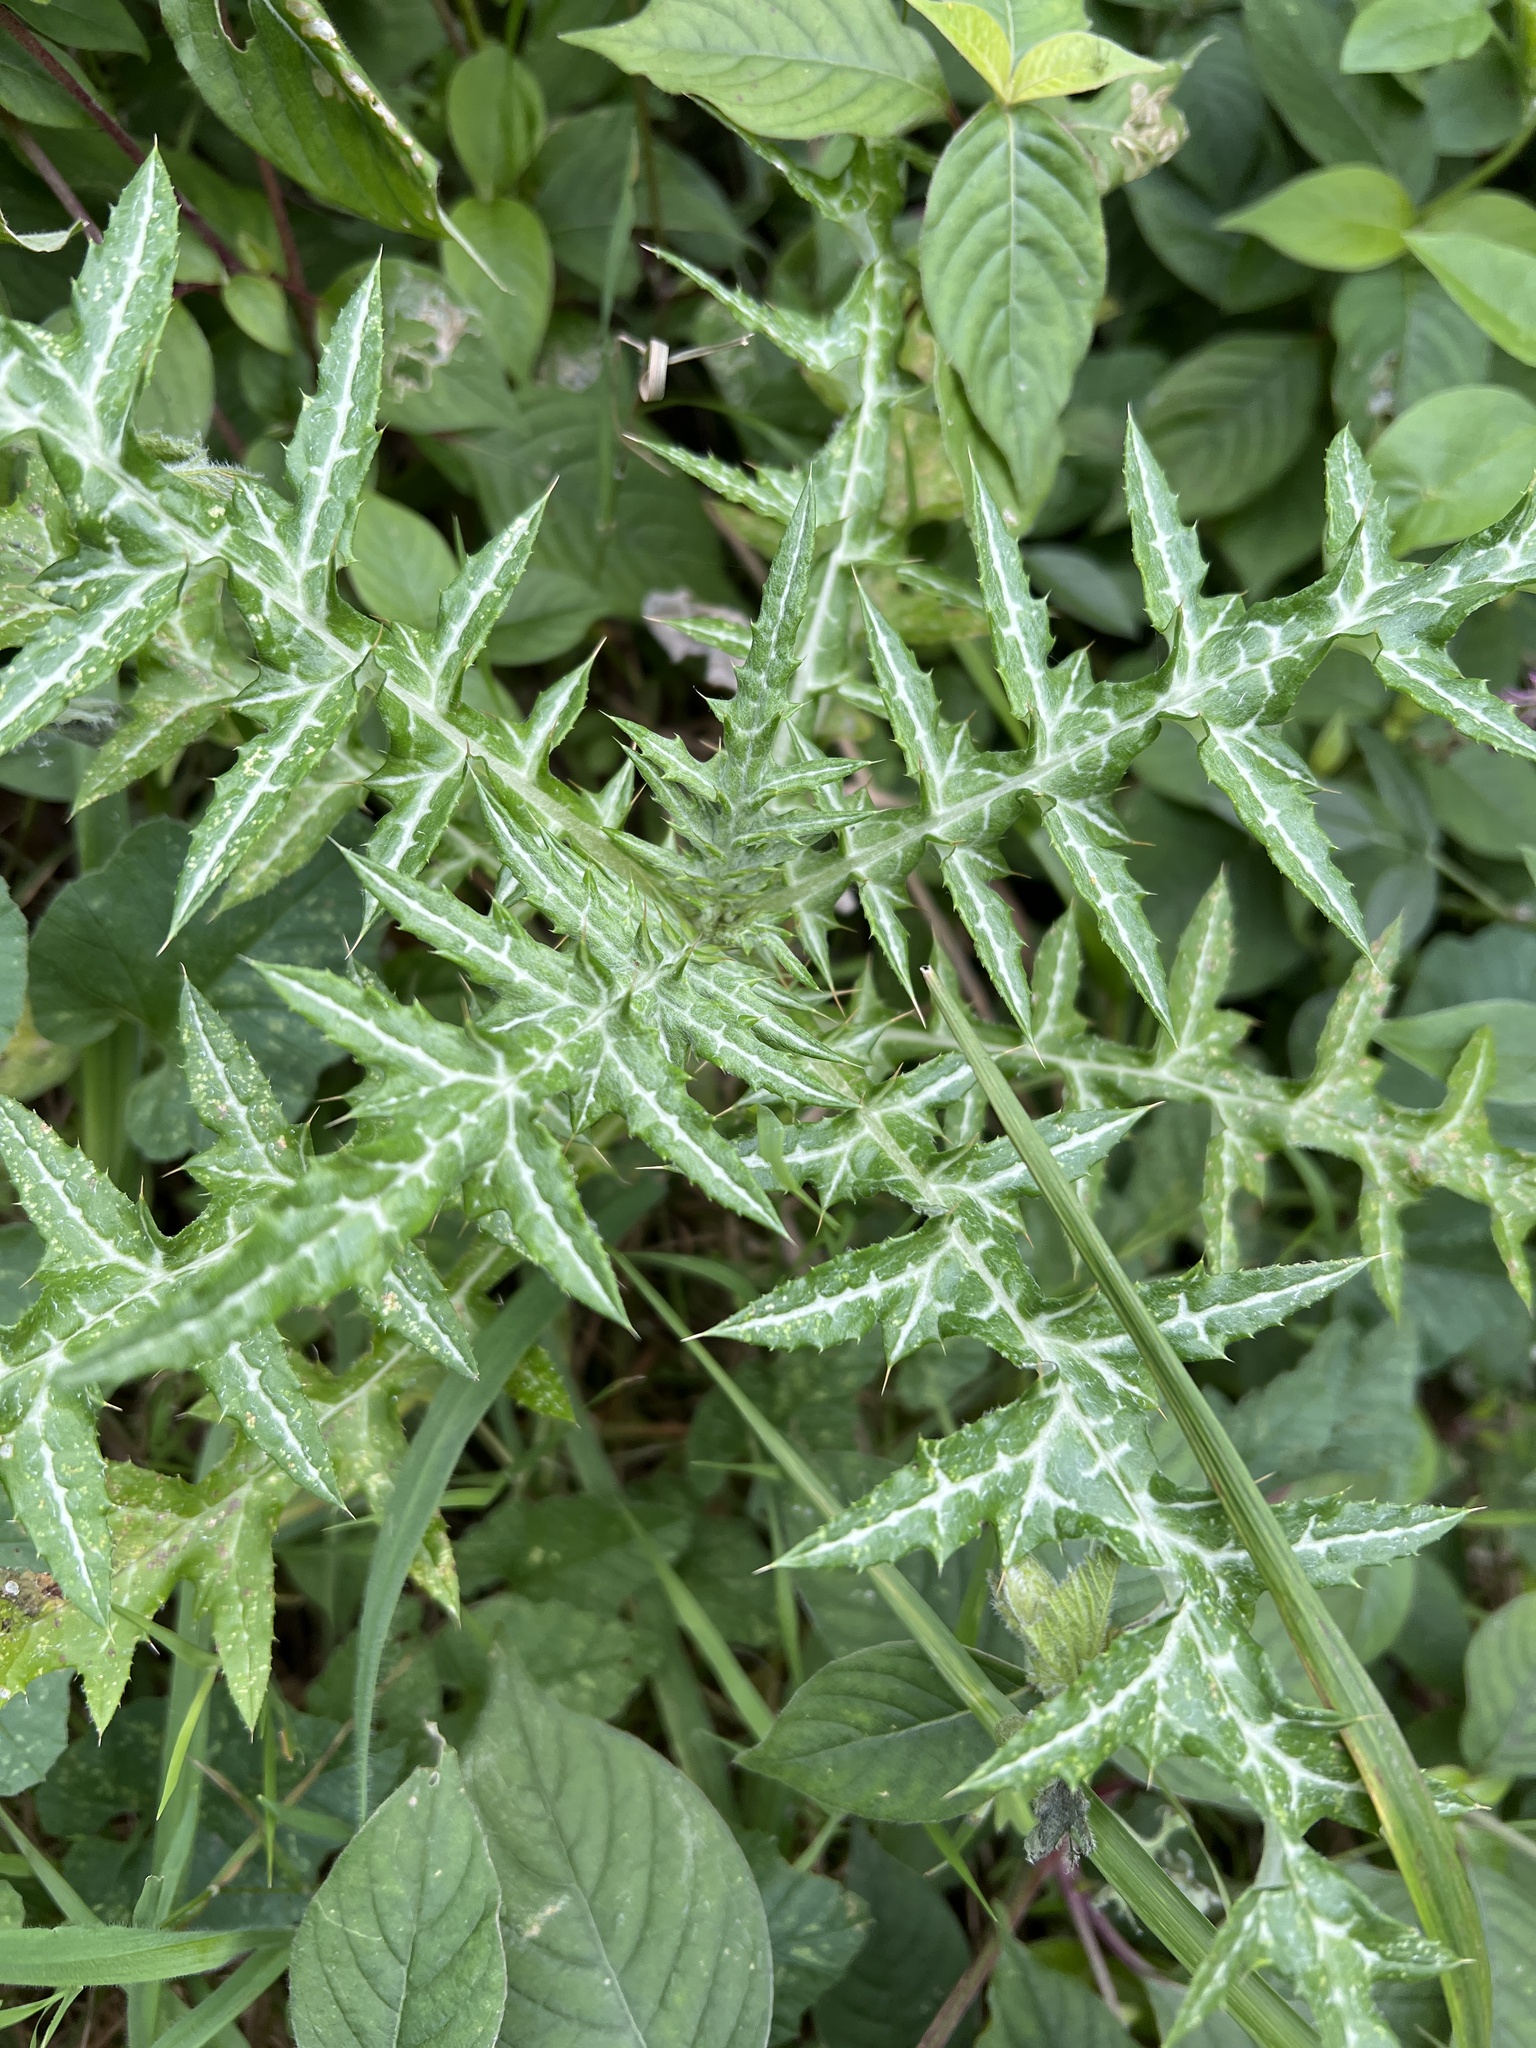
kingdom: Plantae
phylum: Tracheophyta
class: Magnoliopsida
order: Asterales
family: Asteraceae
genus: Galactites
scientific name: Galactites tomentosa
